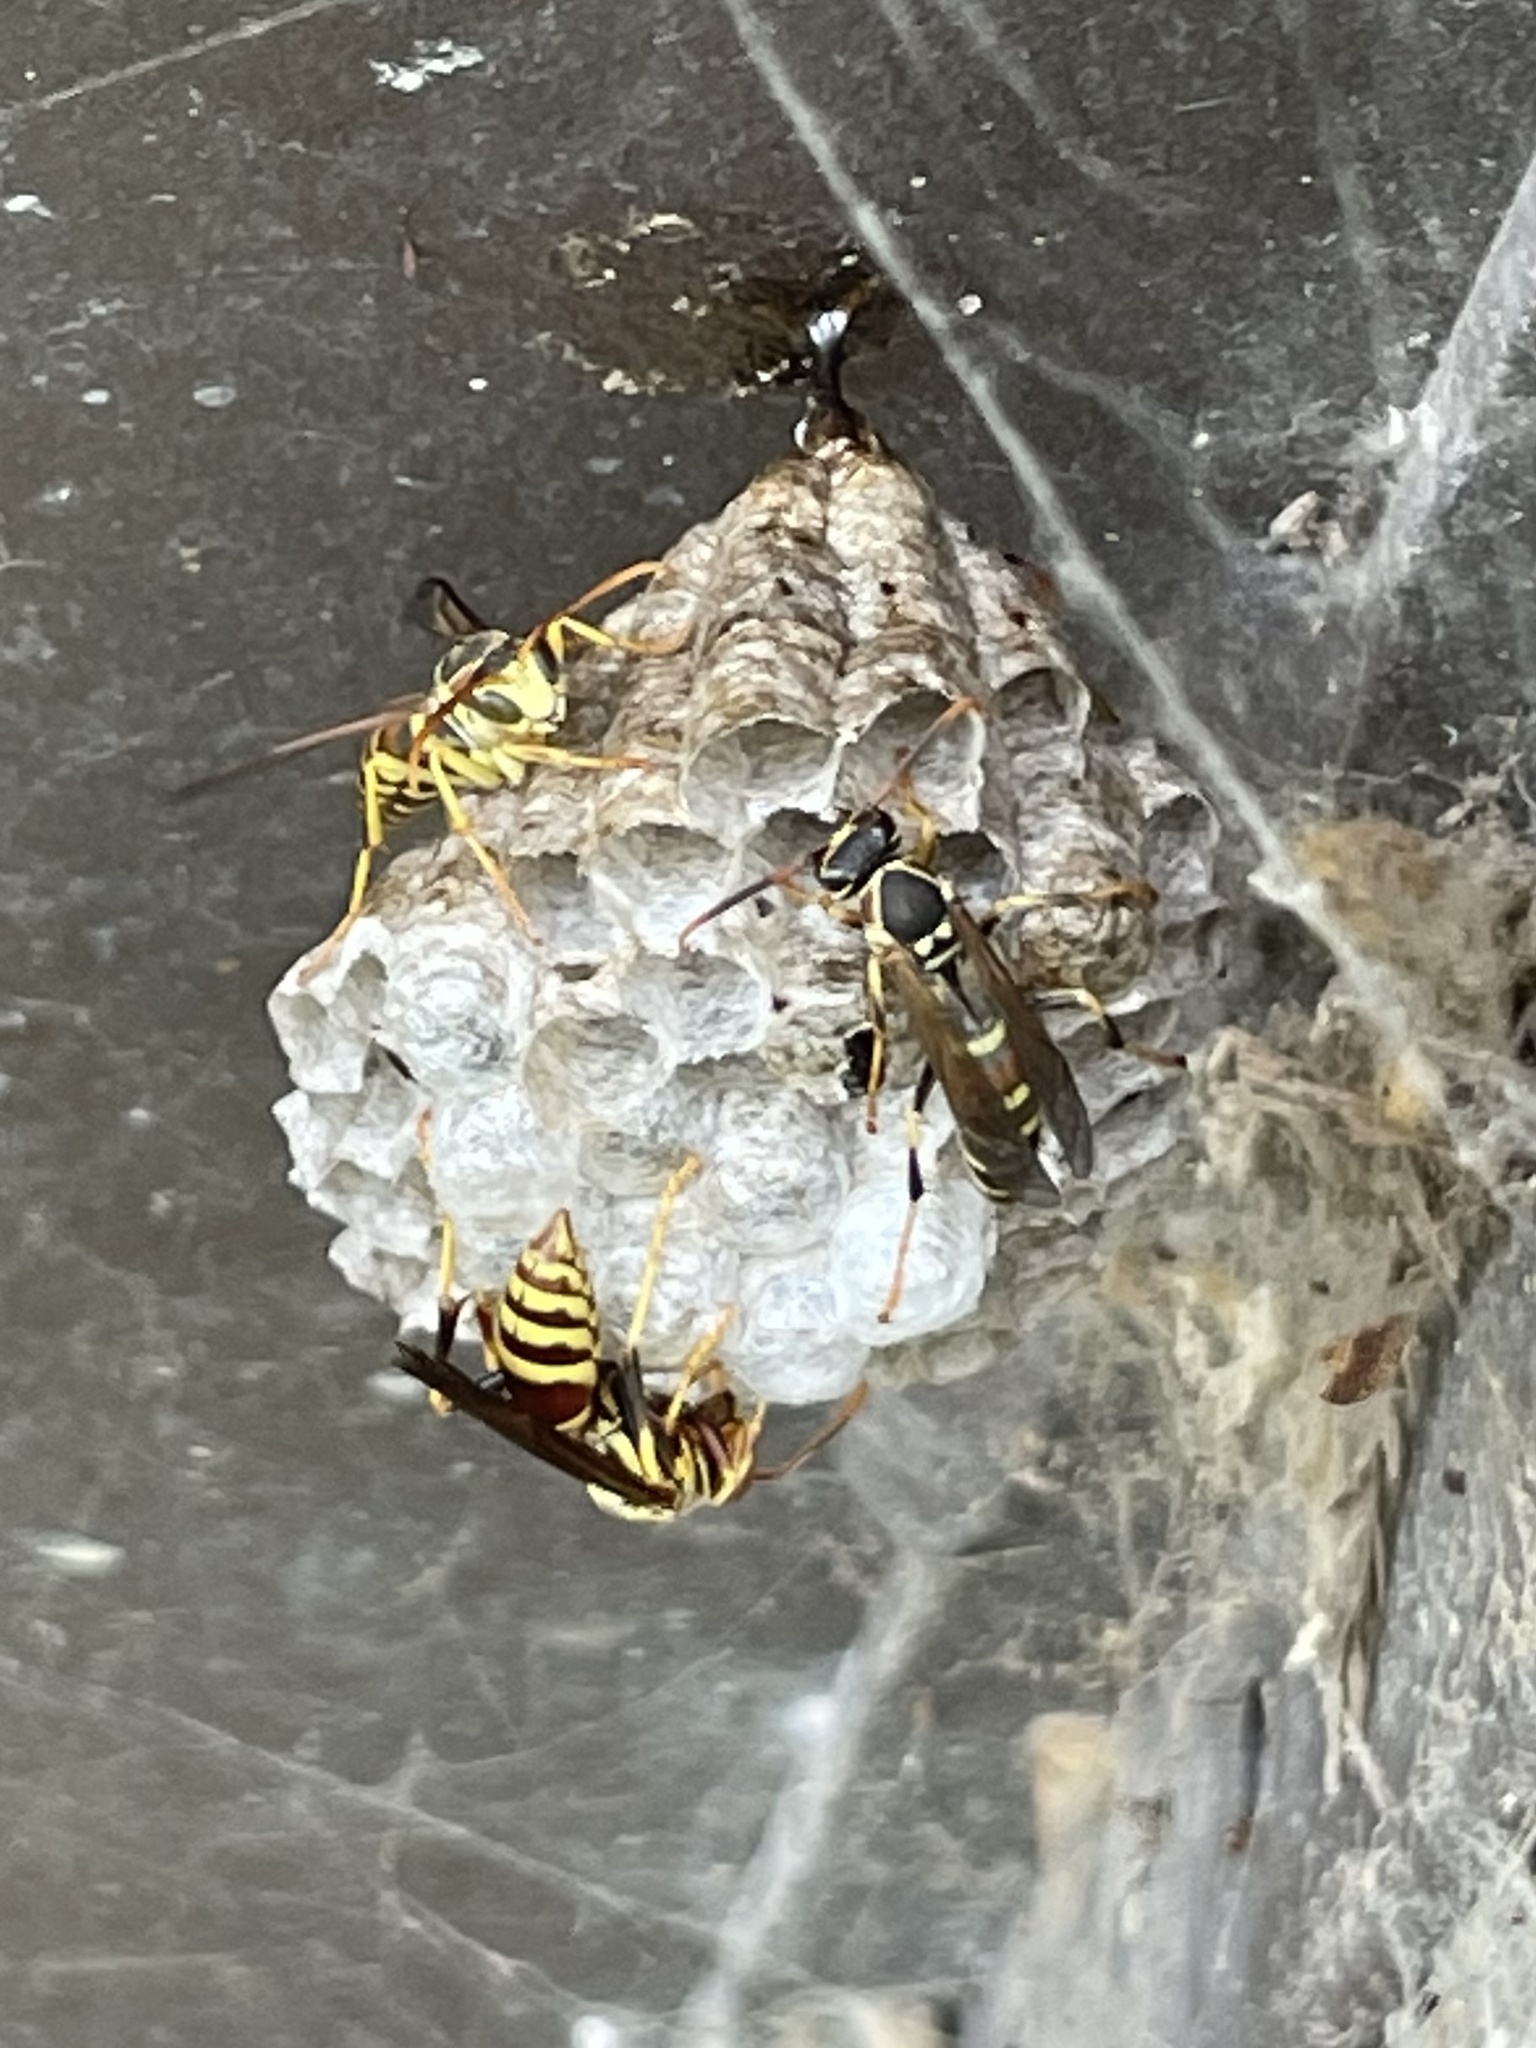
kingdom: Animalia
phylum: Arthropoda
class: Insecta
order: Hymenoptera
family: Eumenidae
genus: Polistes
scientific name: Polistes exclamans
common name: Paper wasp
